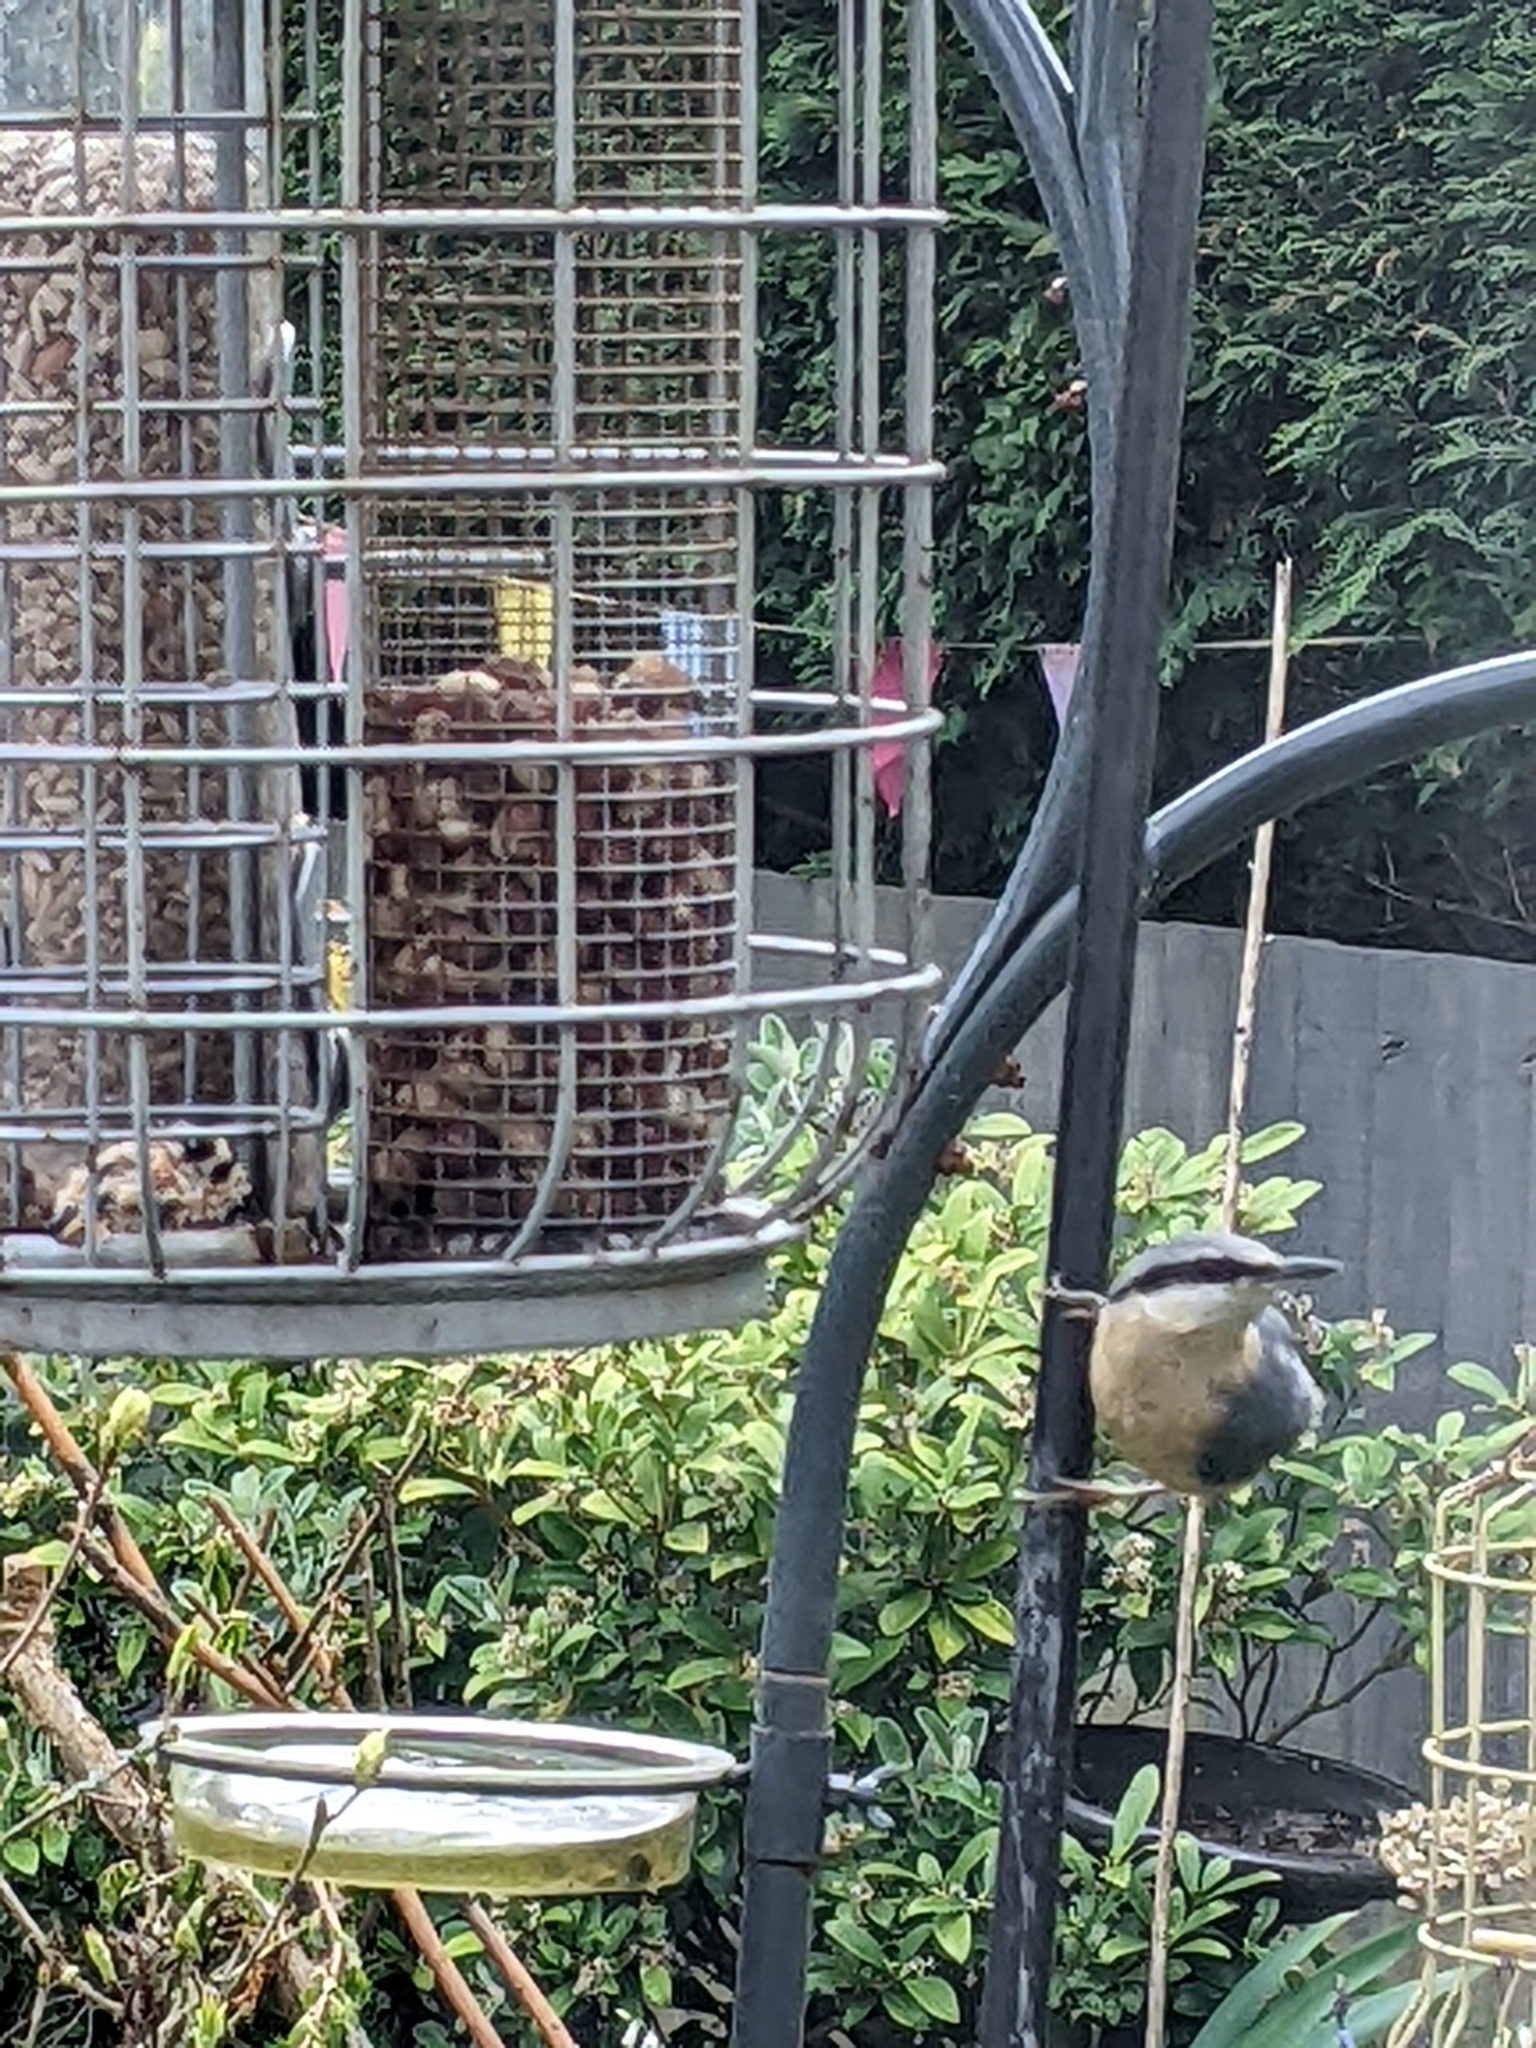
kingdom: Animalia
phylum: Chordata
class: Aves
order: Passeriformes
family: Sittidae
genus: Sitta
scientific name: Sitta europaea
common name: Eurasian nuthatch
